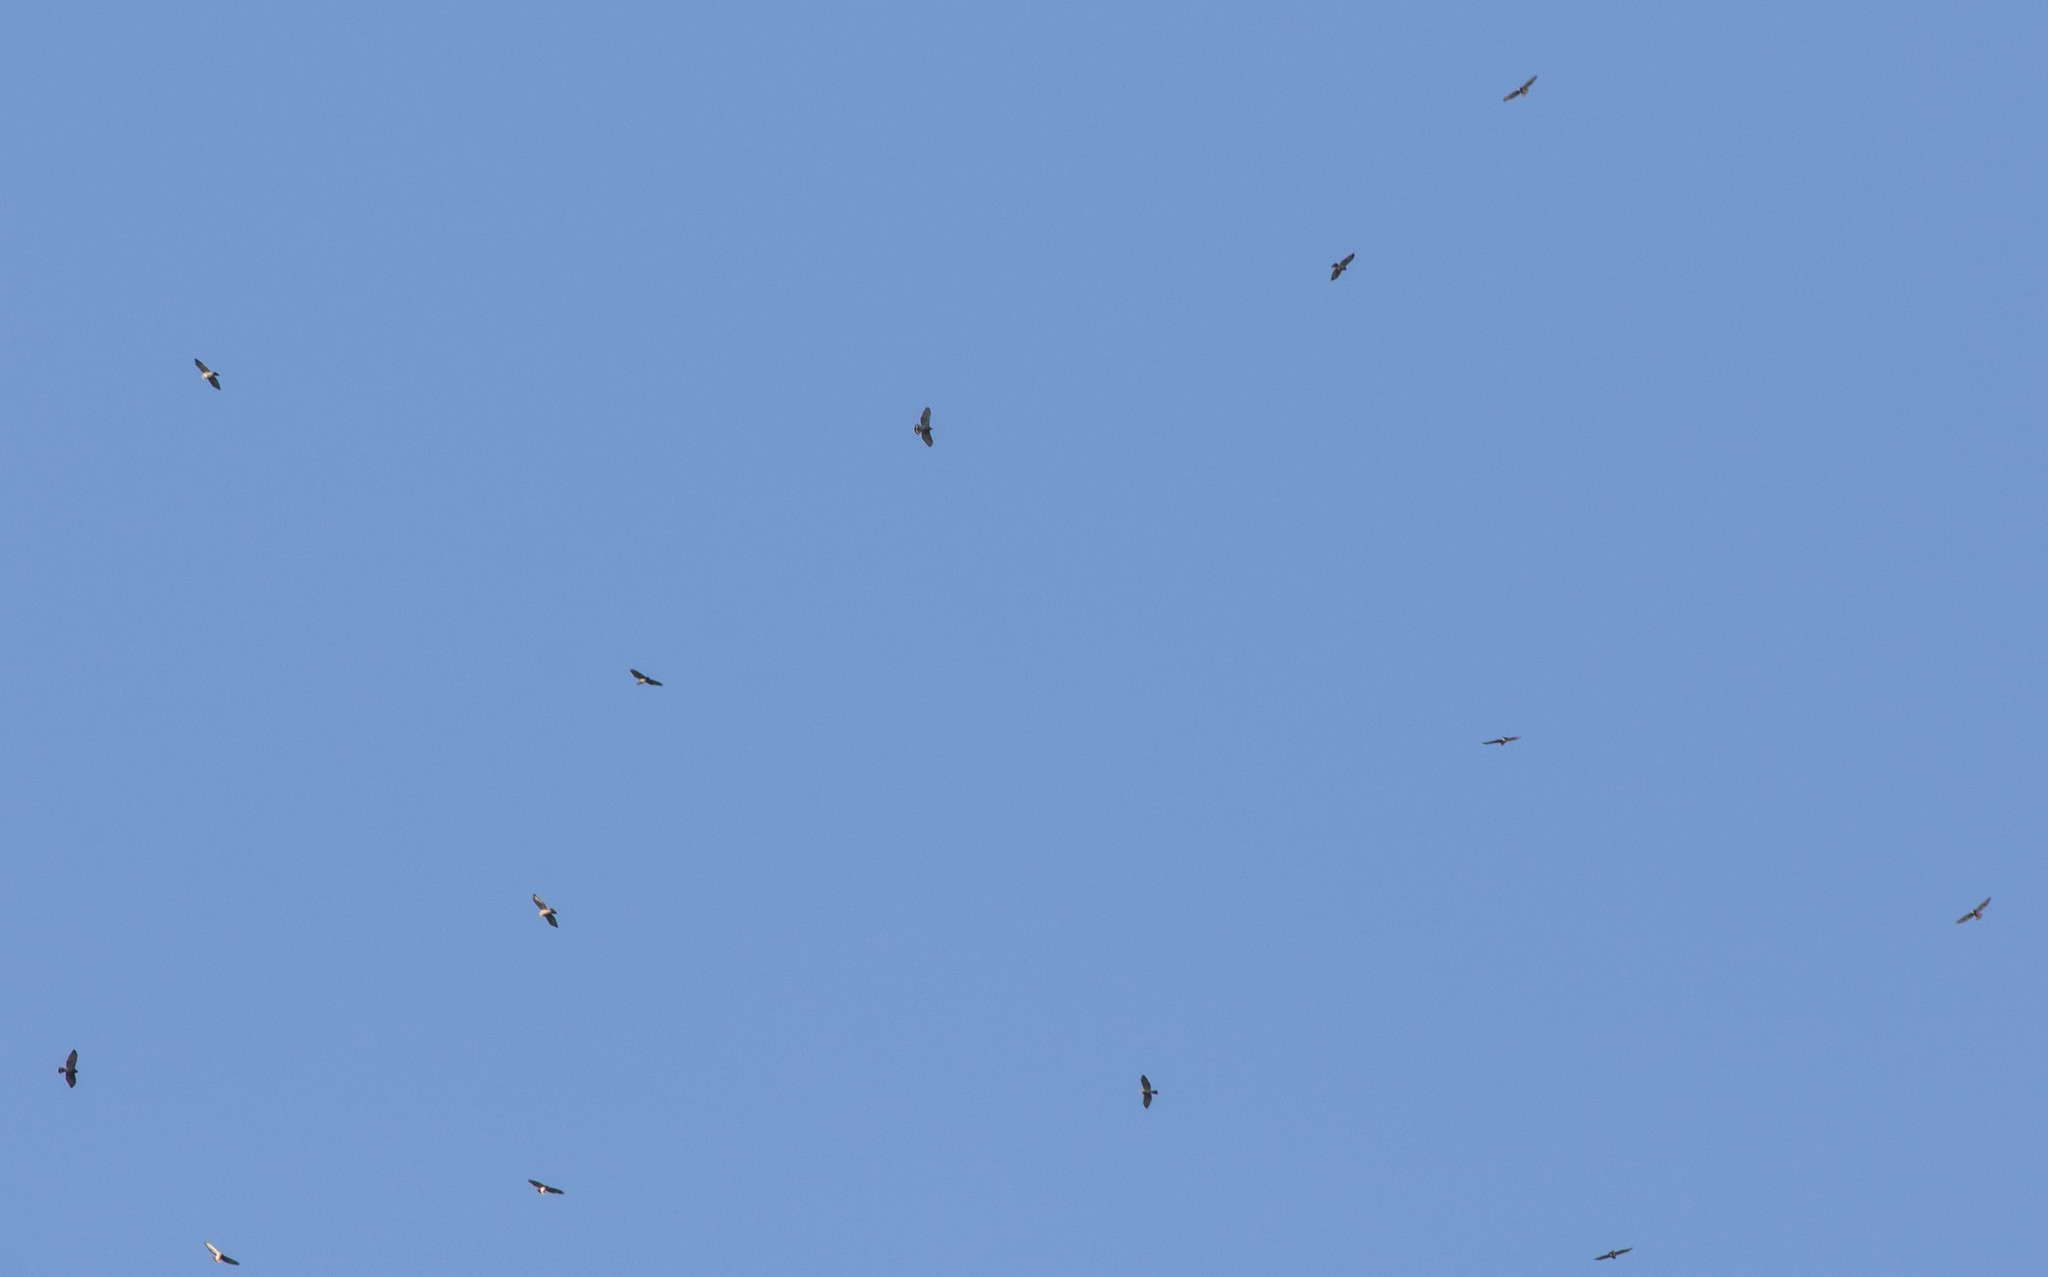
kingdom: Animalia
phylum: Chordata
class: Aves
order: Accipitriformes
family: Accipitridae
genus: Buteo
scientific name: Buteo platypterus
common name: Broad-winged hawk
